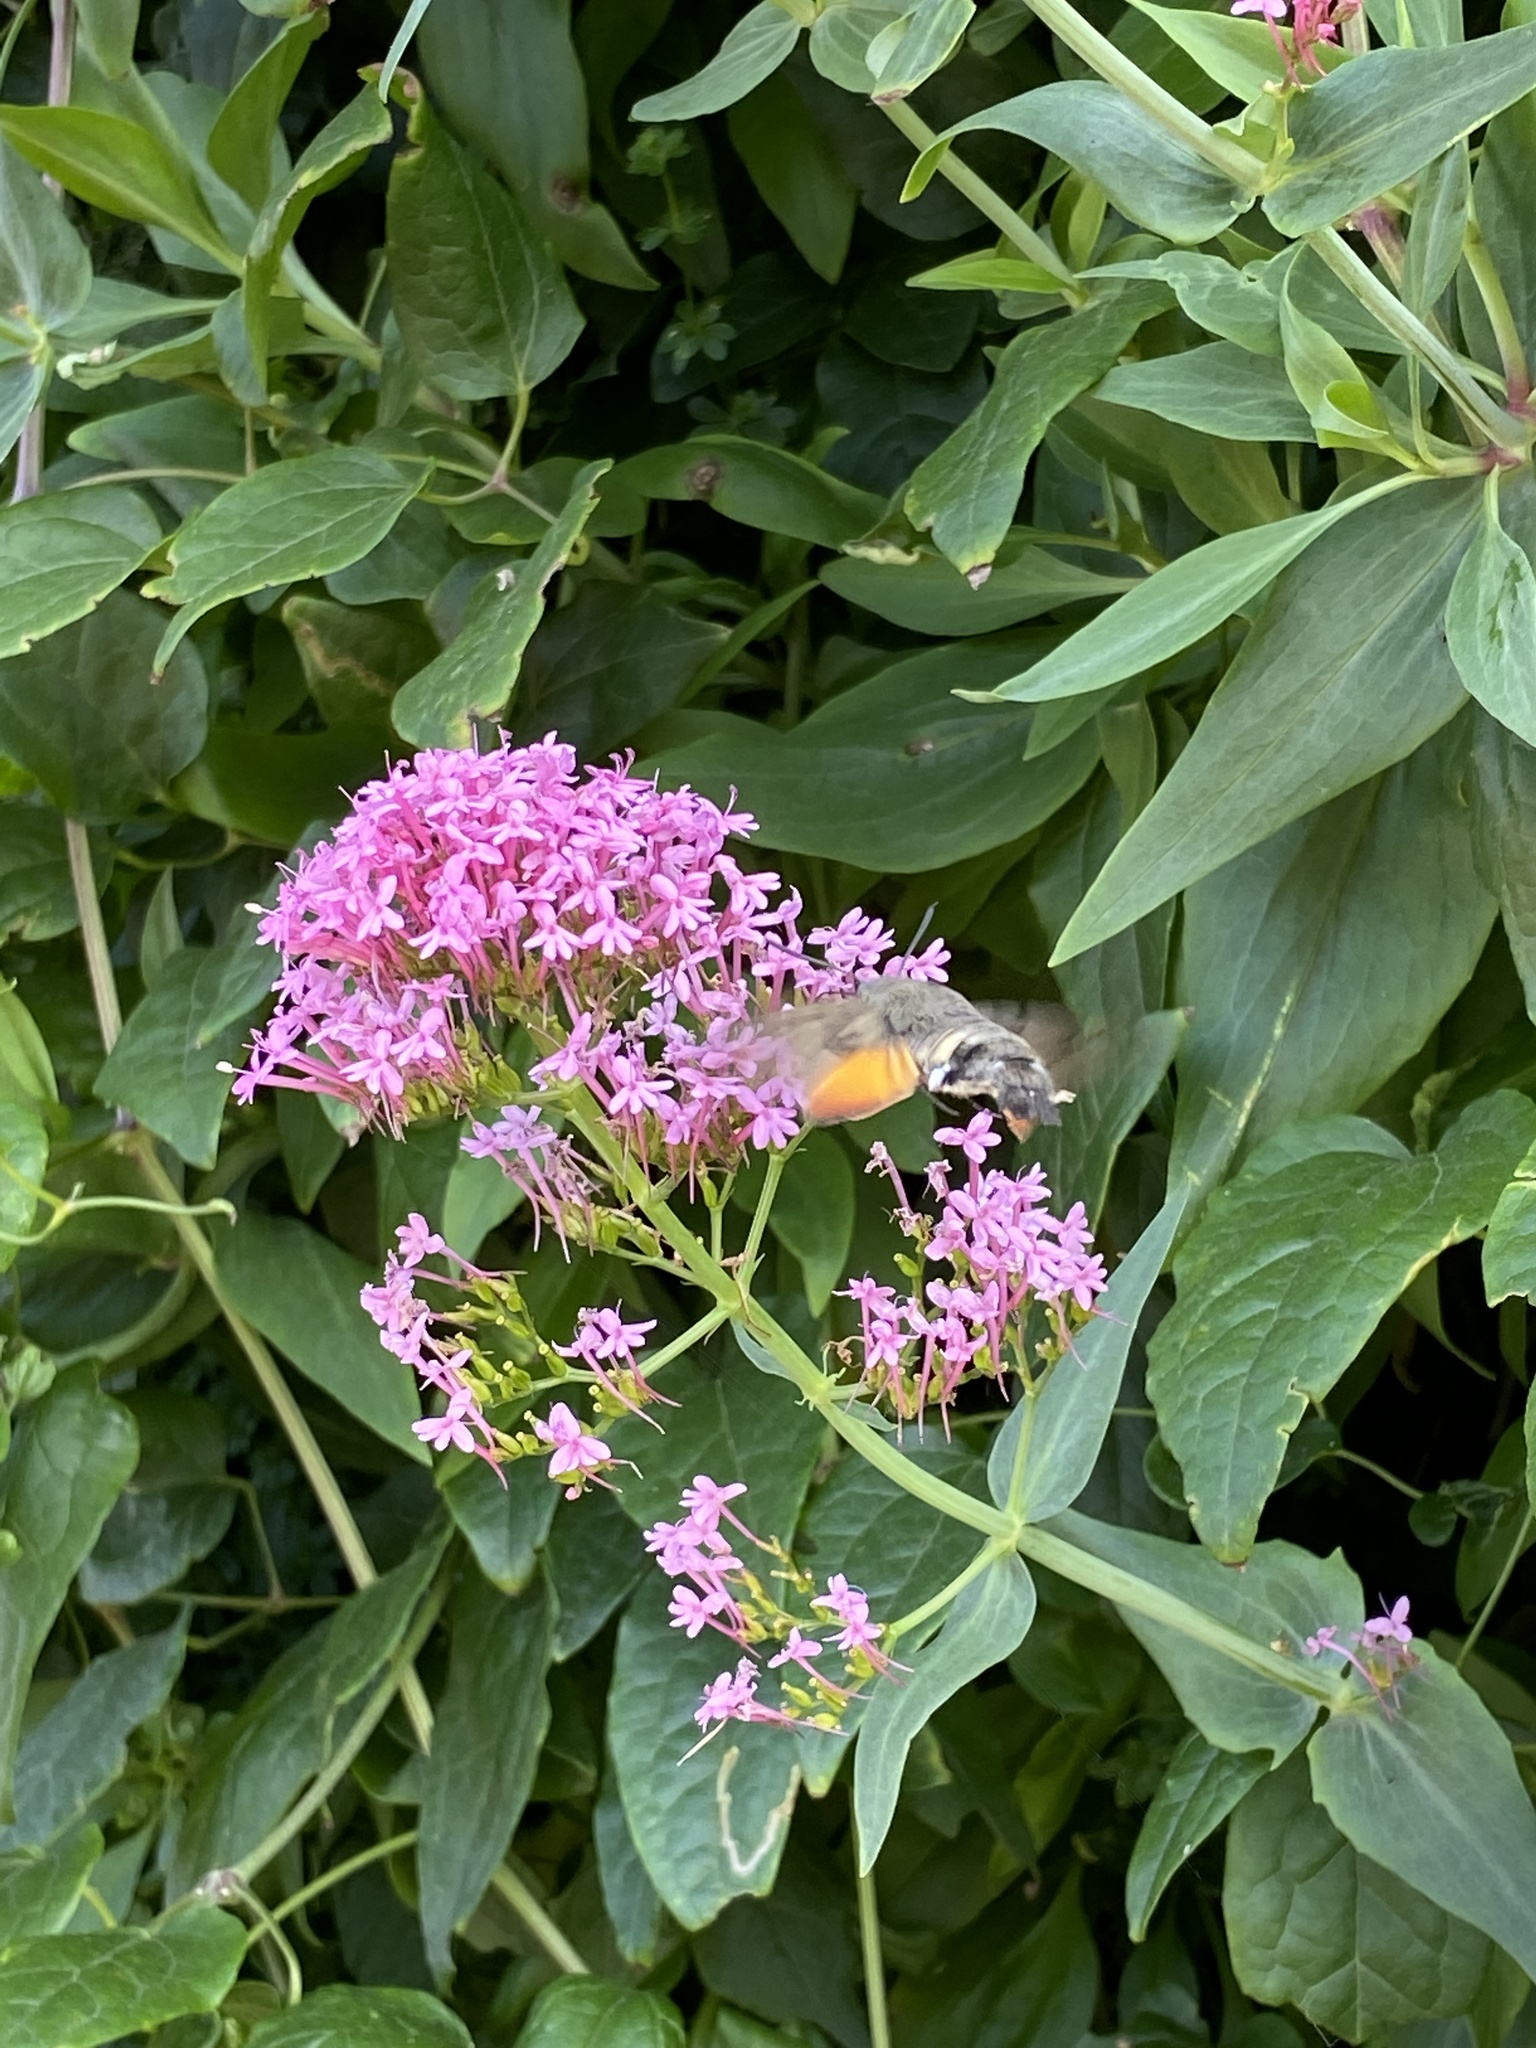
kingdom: Animalia
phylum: Arthropoda
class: Insecta
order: Lepidoptera
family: Sphingidae
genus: Macroglossum
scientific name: Macroglossum stellatarum
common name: Humming-bird hawk-moth
